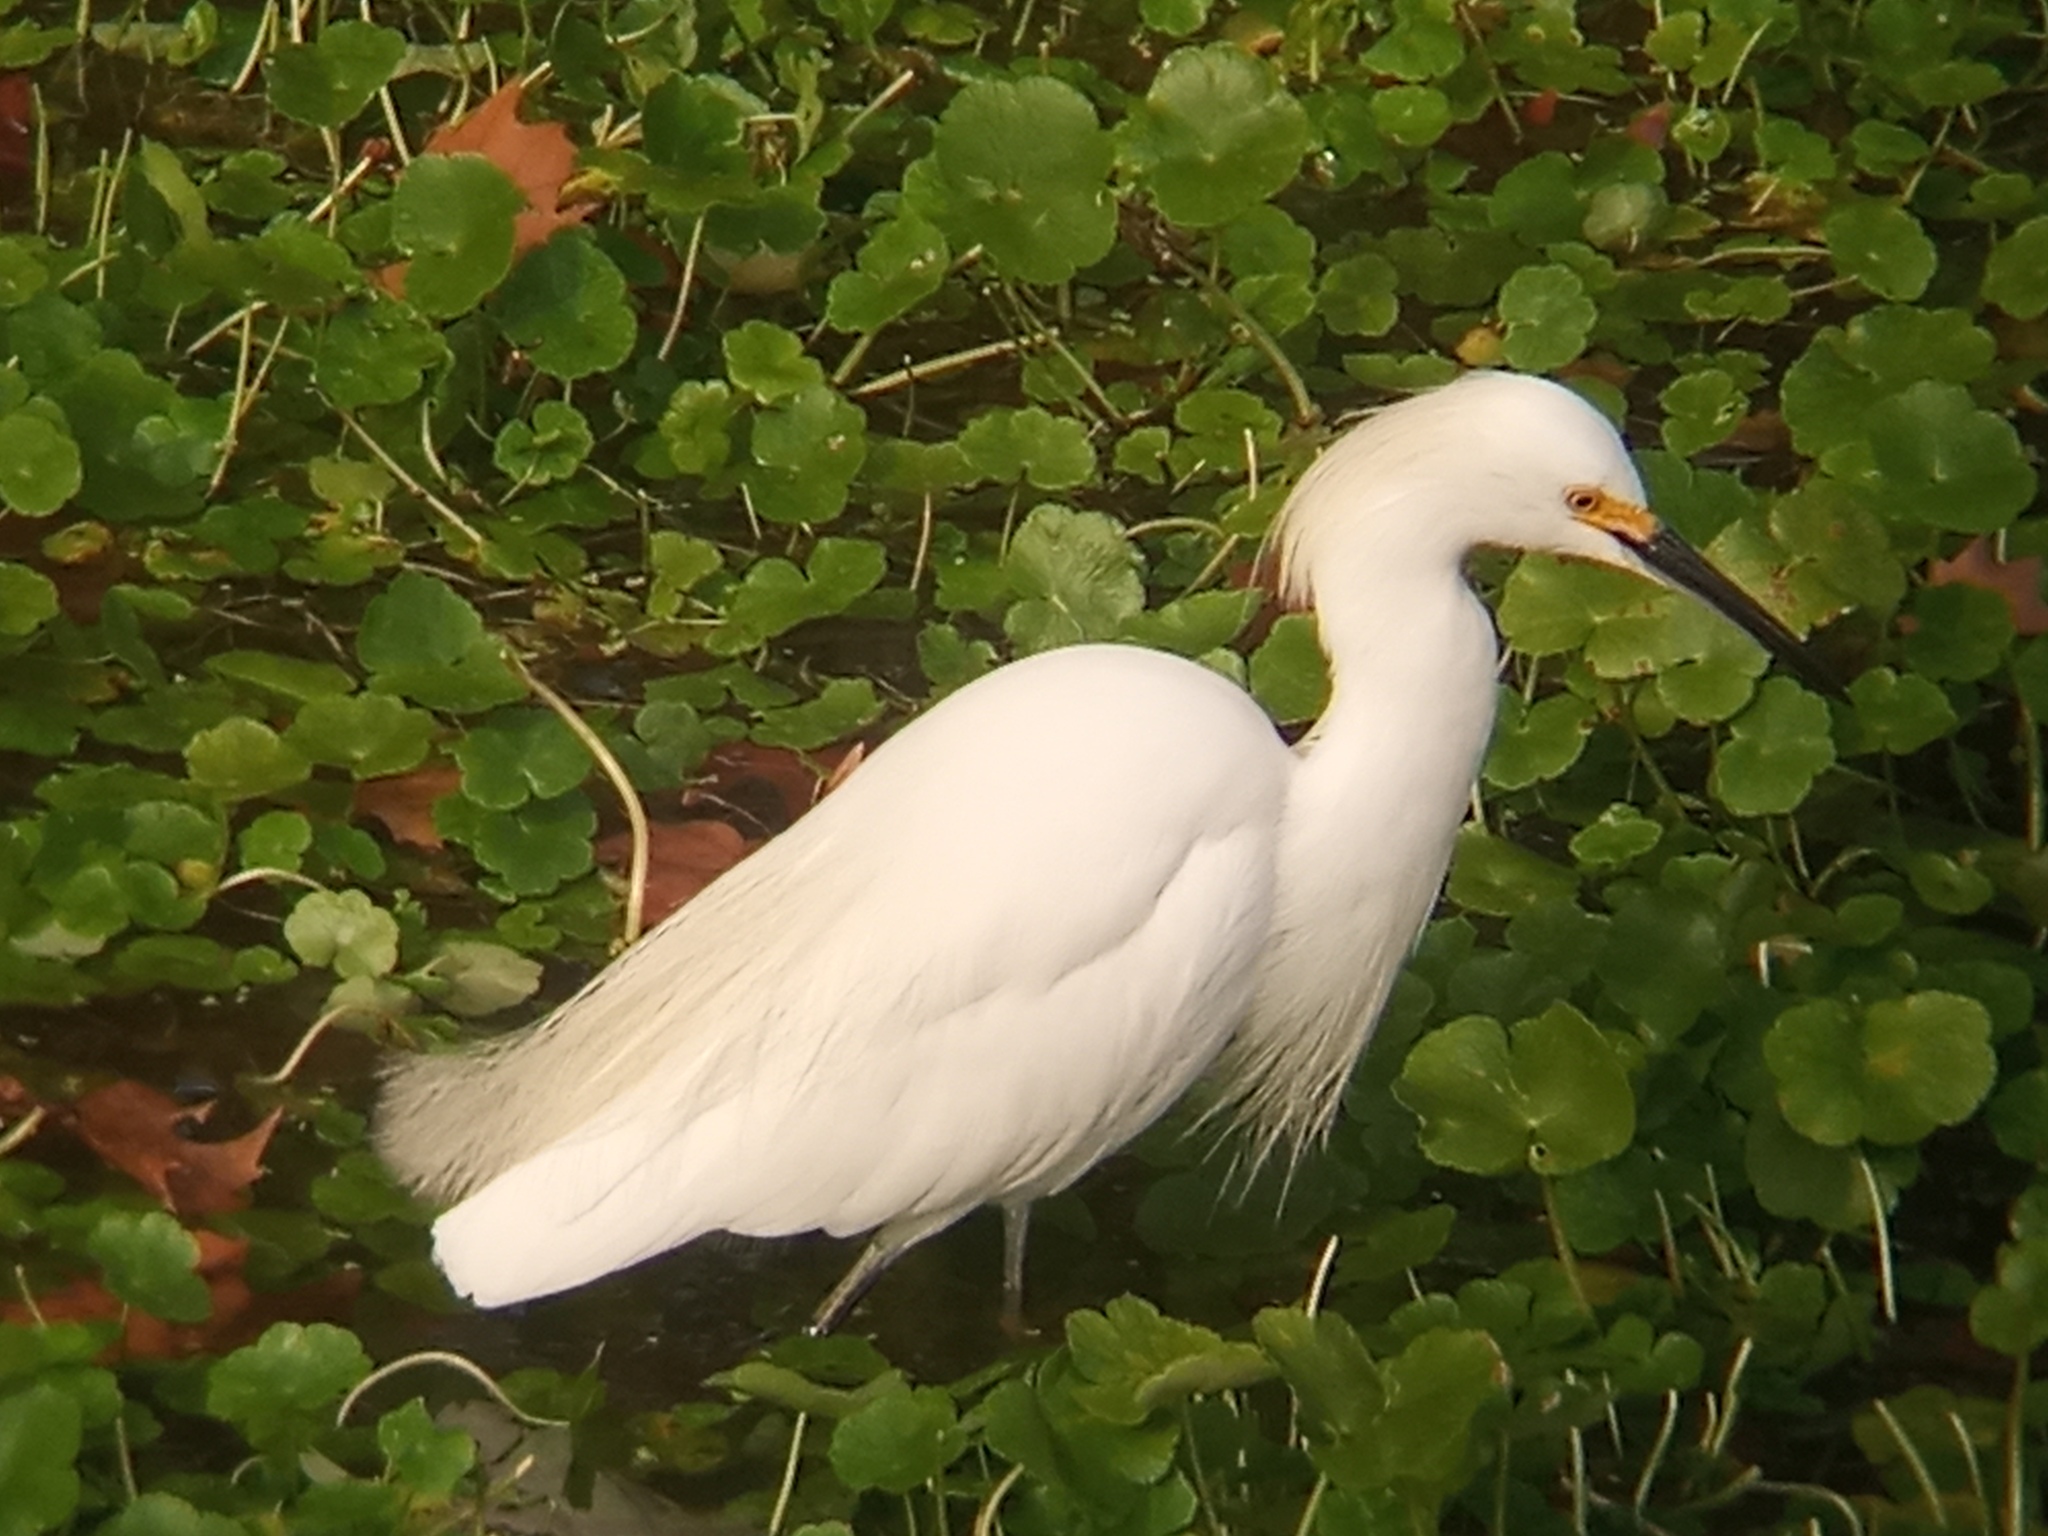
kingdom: Animalia
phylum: Chordata
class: Aves
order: Pelecaniformes
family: Ardeidae
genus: Egretta
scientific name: Egretta thula
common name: Snowy egret
